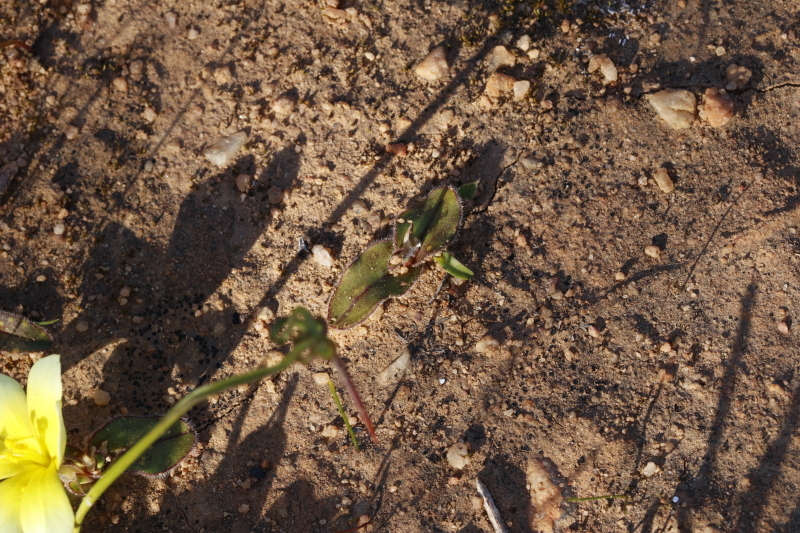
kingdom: Plantae
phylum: Tracheophyta
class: Liliopsida
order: Asparagales
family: Iridaceae
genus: Moraea
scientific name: Moraea luteoalba
